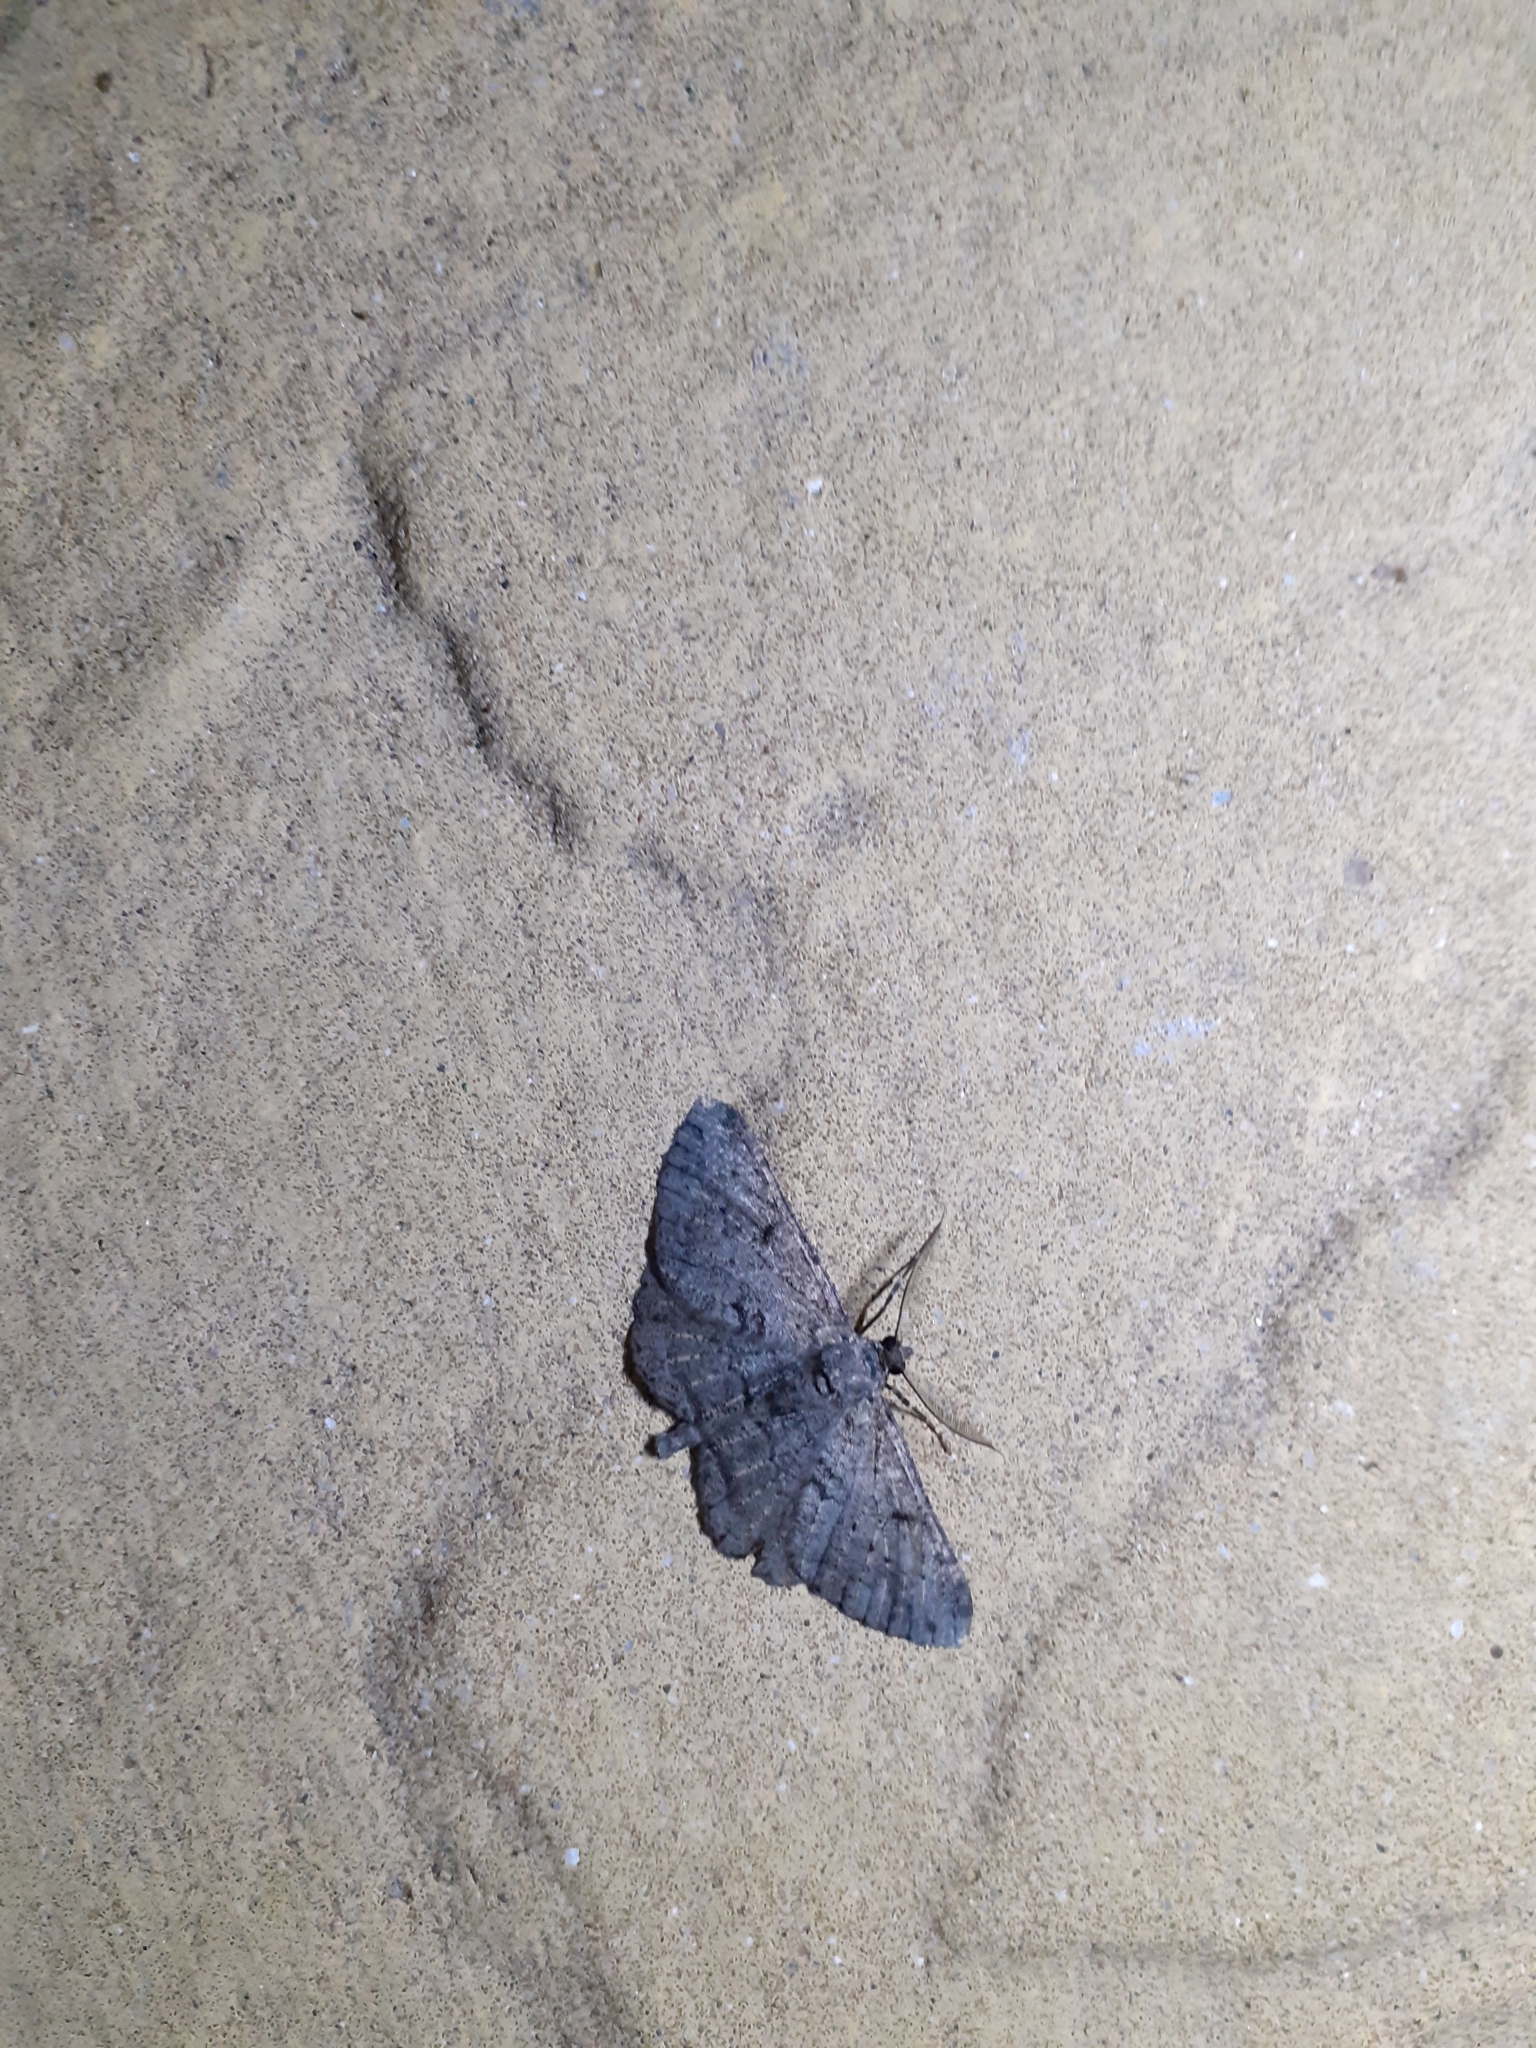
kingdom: Animalia
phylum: Arthropoda
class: Insecta
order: Lepidoptera
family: Geometridae
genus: Peribatodes
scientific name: Peribatodes rhomboidaria
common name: Willow beauty
